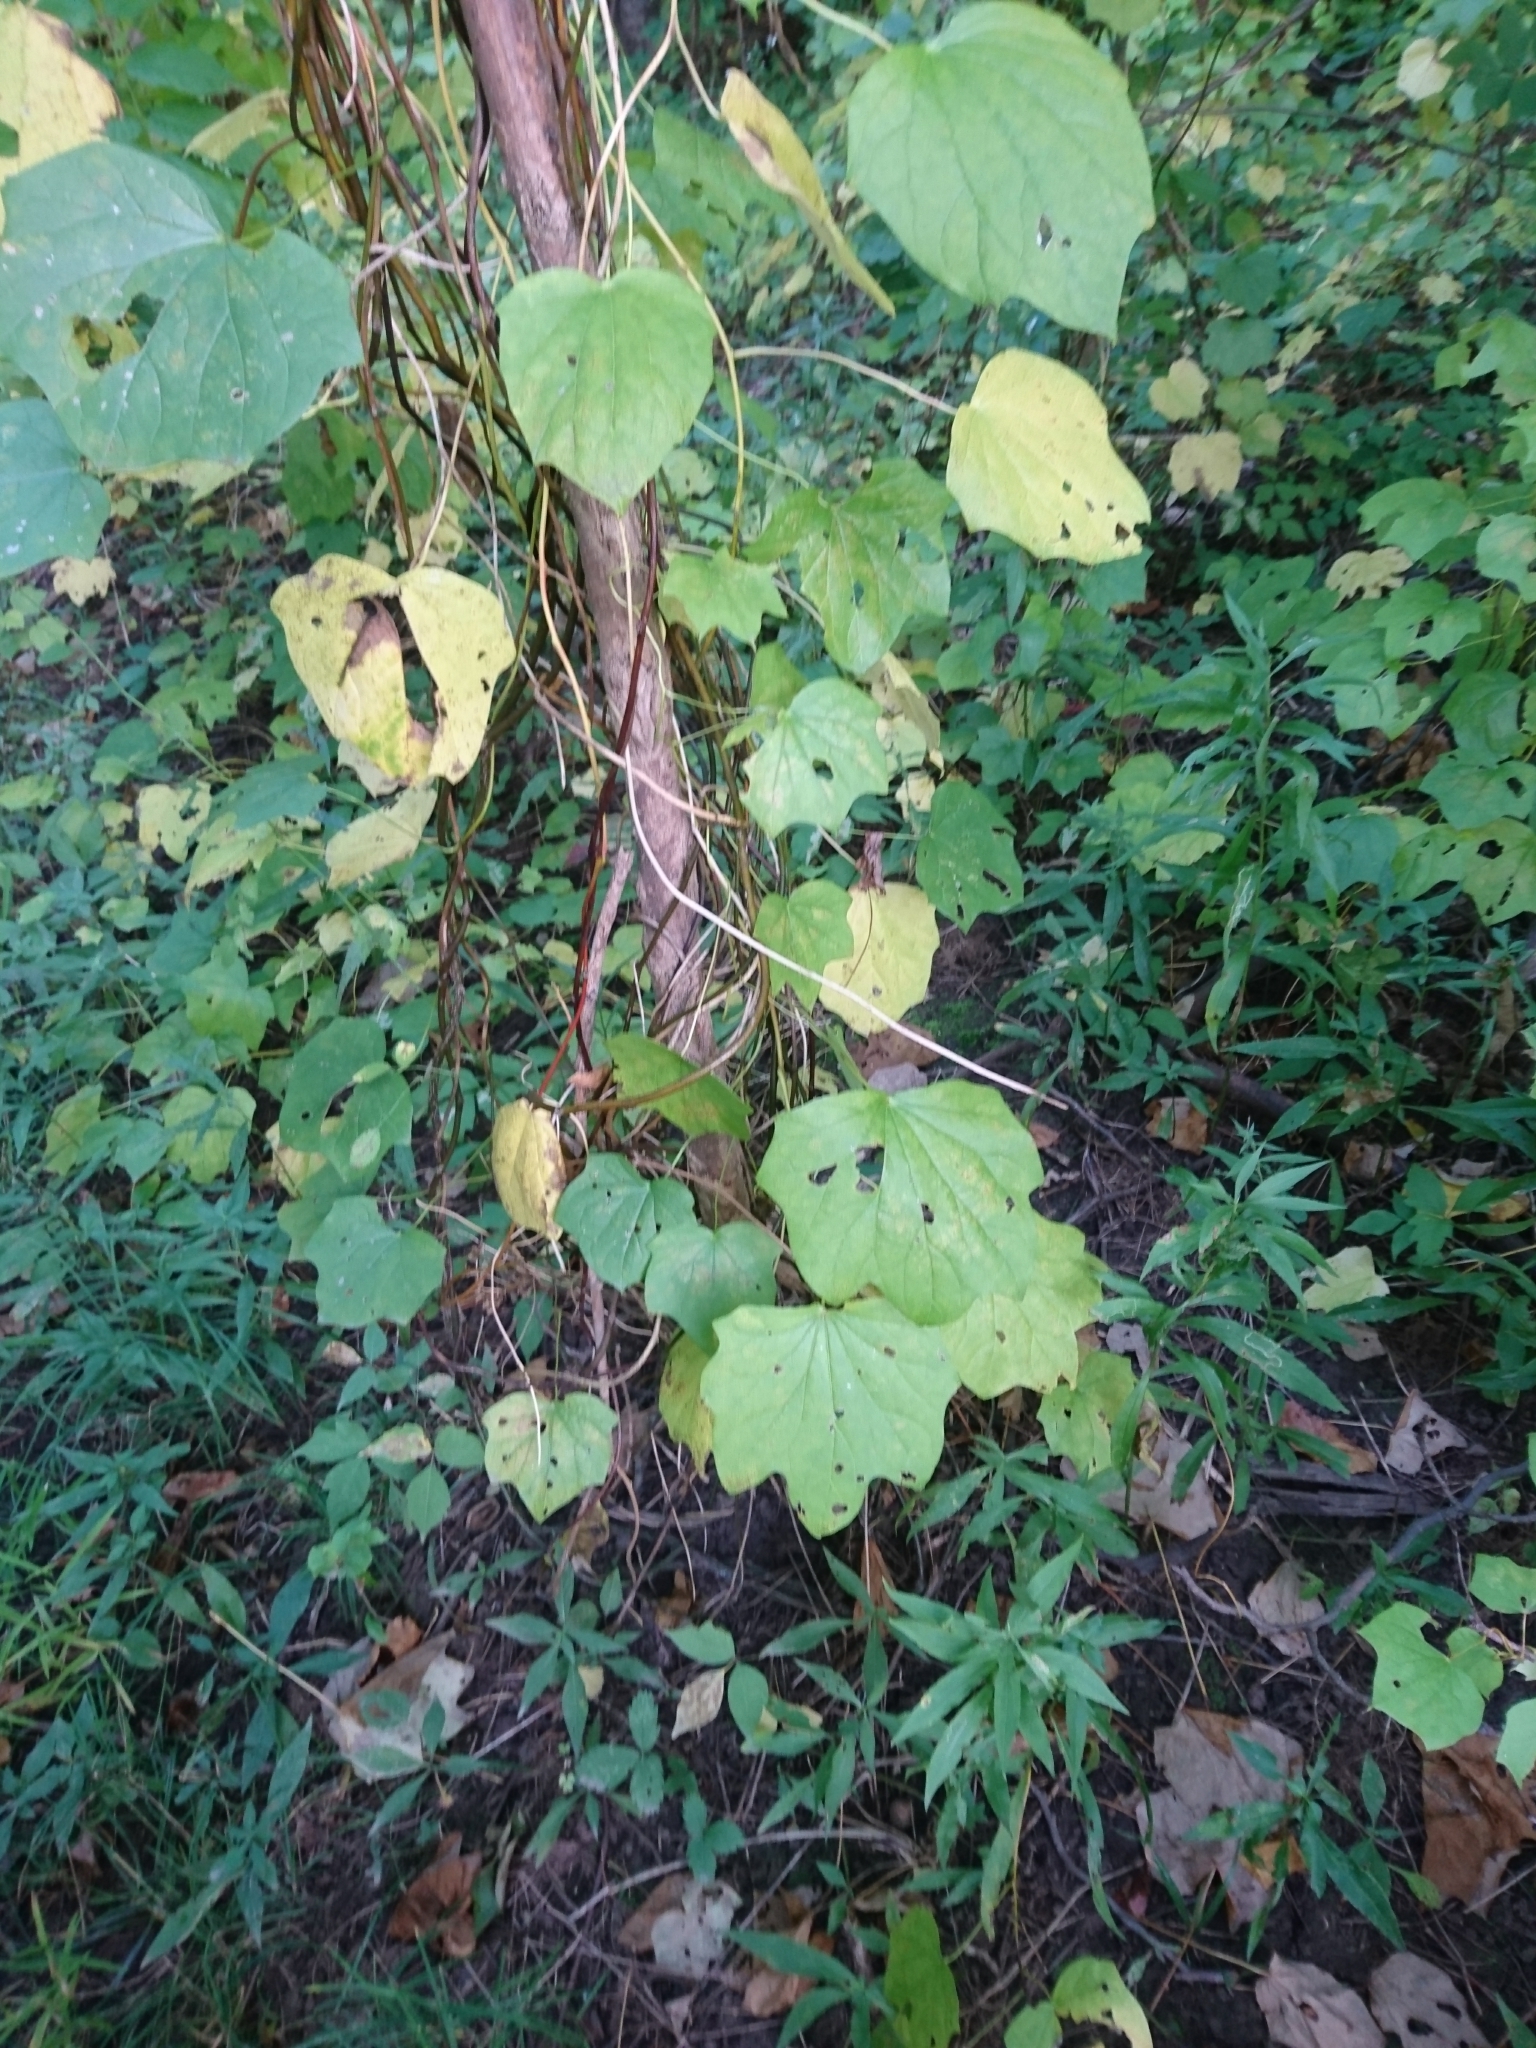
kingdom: Plantae
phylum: Tracheophyta
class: Magnoliopsida
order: Ranunculales
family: Menispermaceae
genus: Menispermum
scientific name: Menispermum canadense
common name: Moonseed
